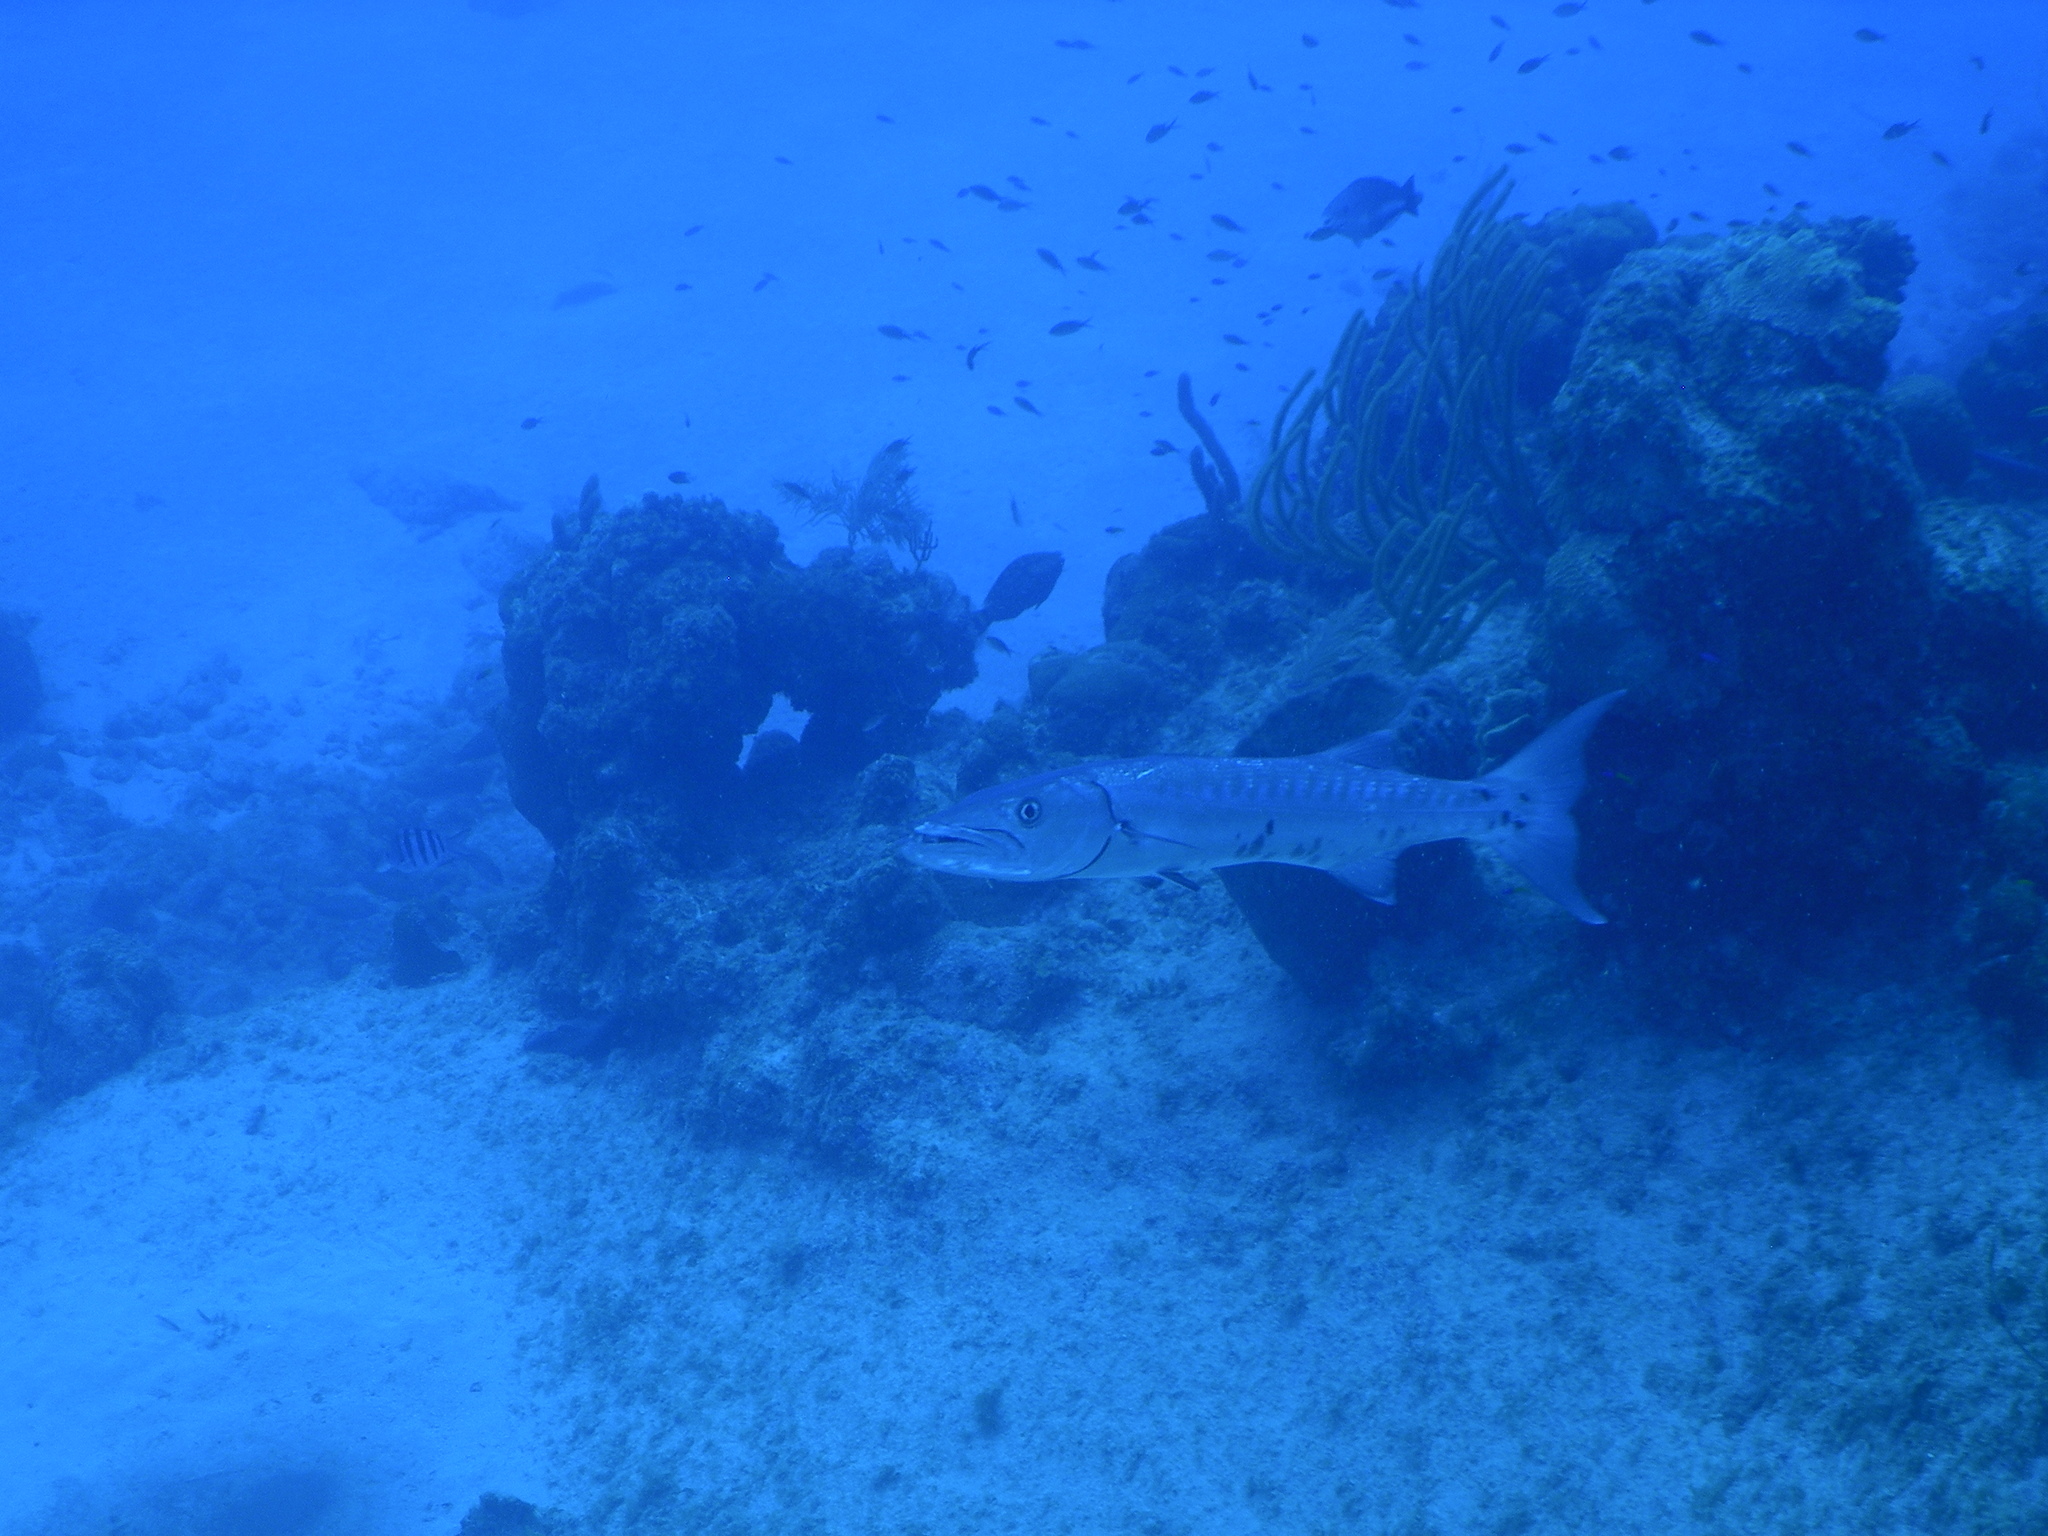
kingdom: Animalia
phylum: Chordata
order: Perciformes
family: Sphyraenidae
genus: Sphyraena
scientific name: Sphyraena barracuda
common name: Great barracuda
